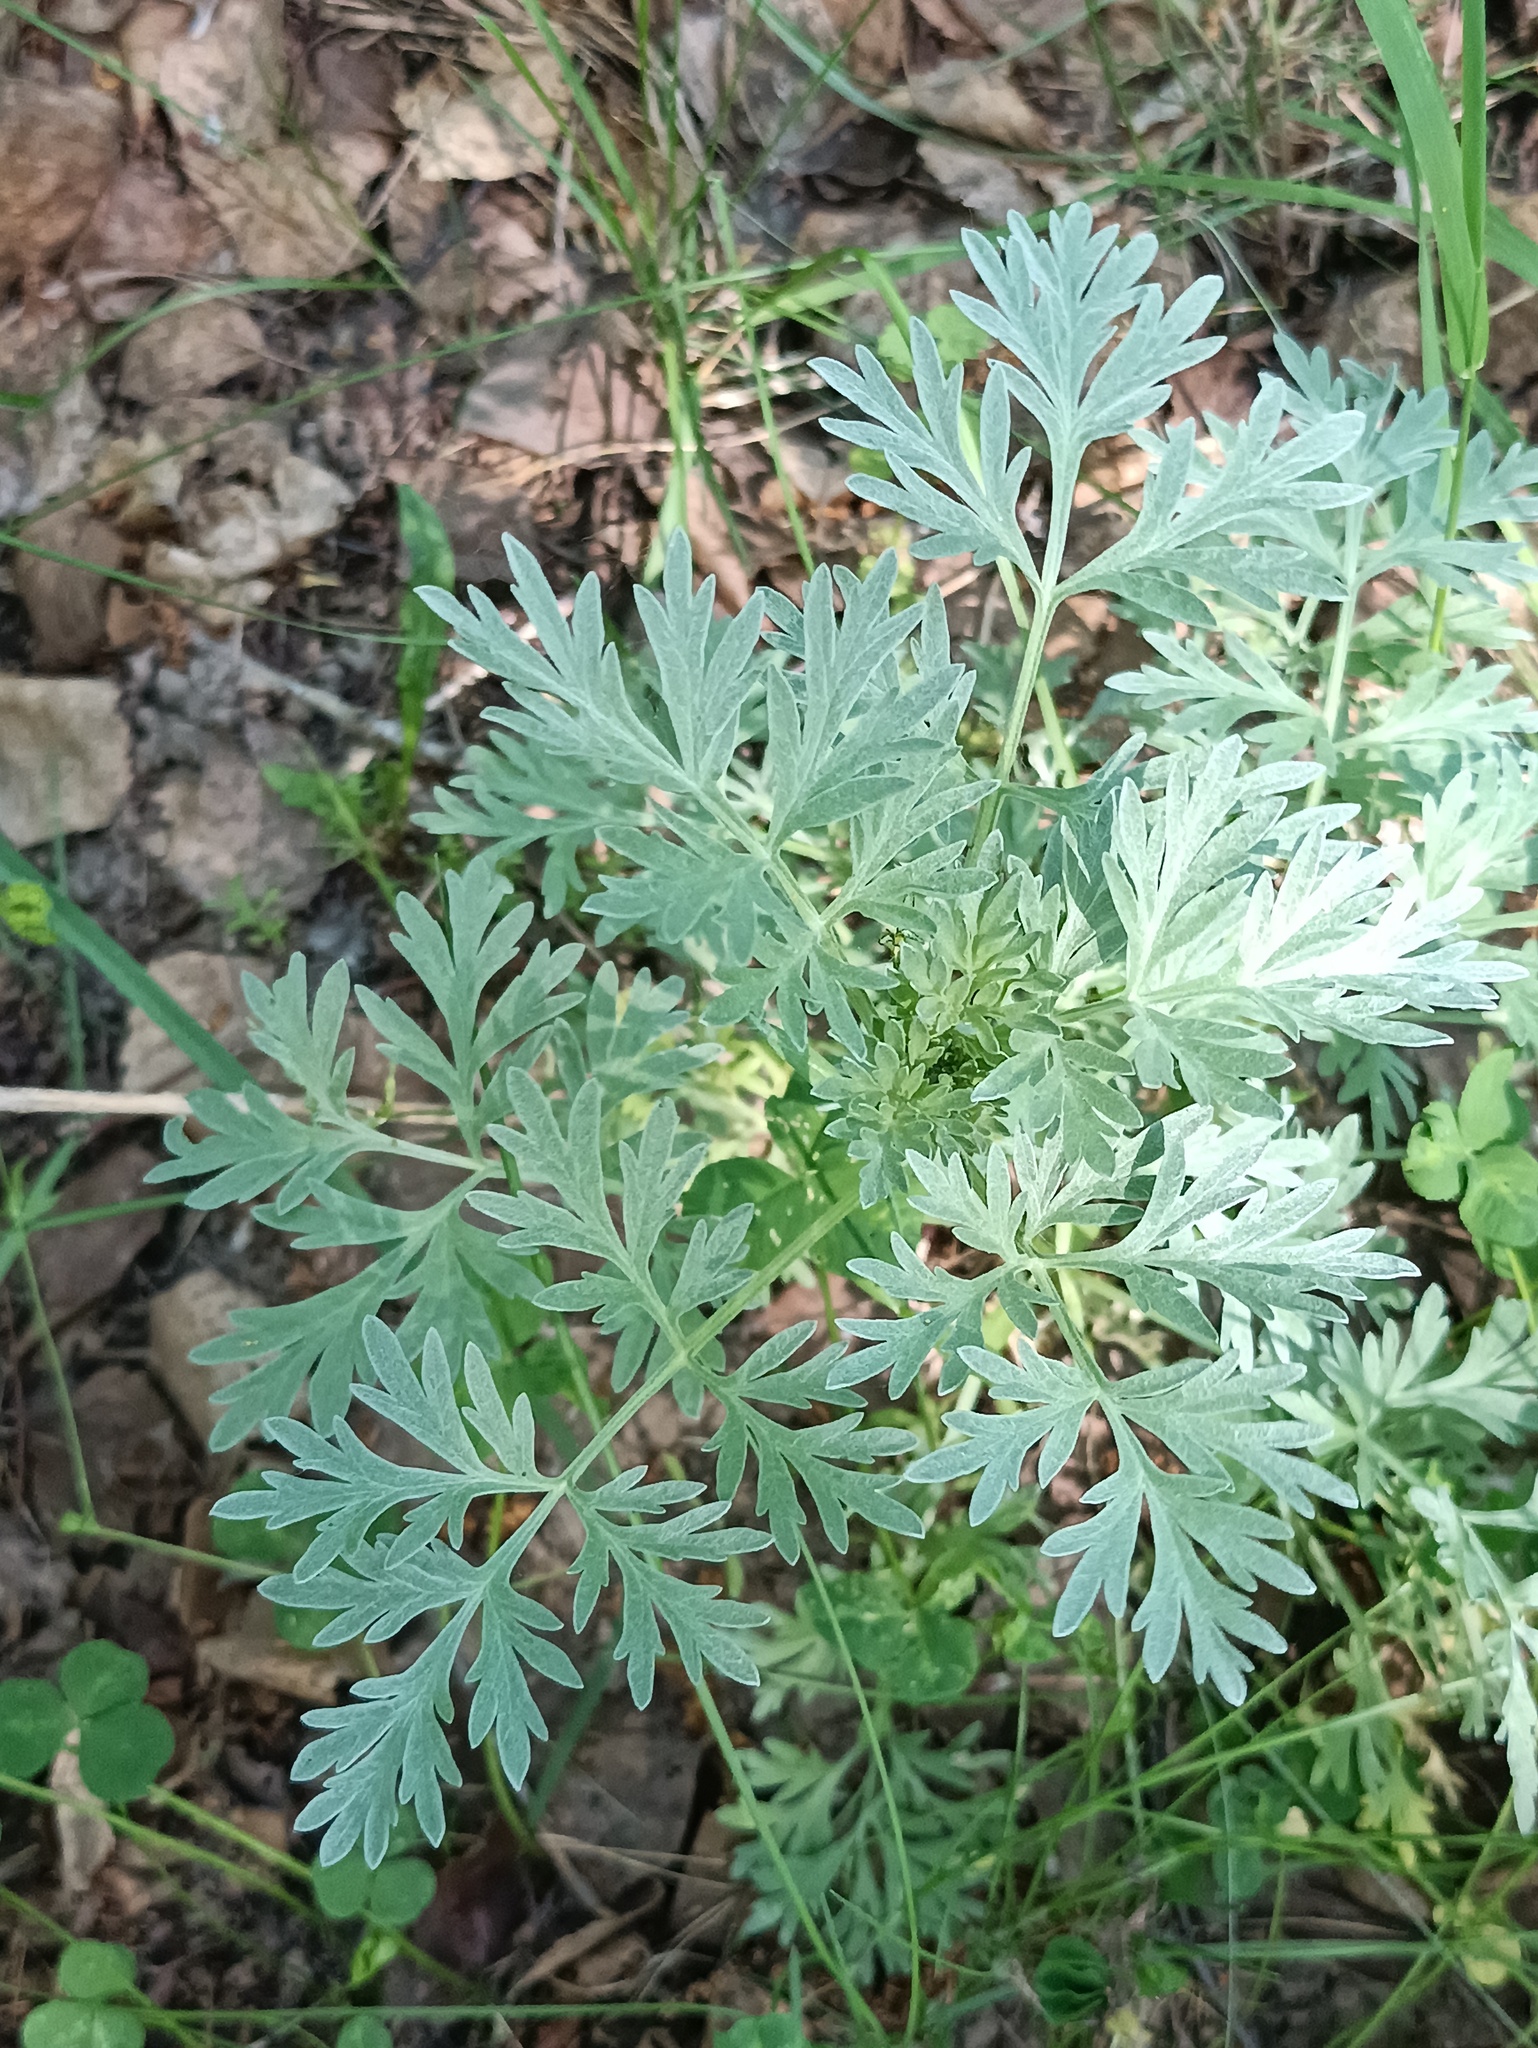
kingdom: Plantae
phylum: Tracheophyta
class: Magnoliopsida
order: Asterales
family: Asteraceae
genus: Artemisia
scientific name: Artemisia absinthium
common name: Wormwood
